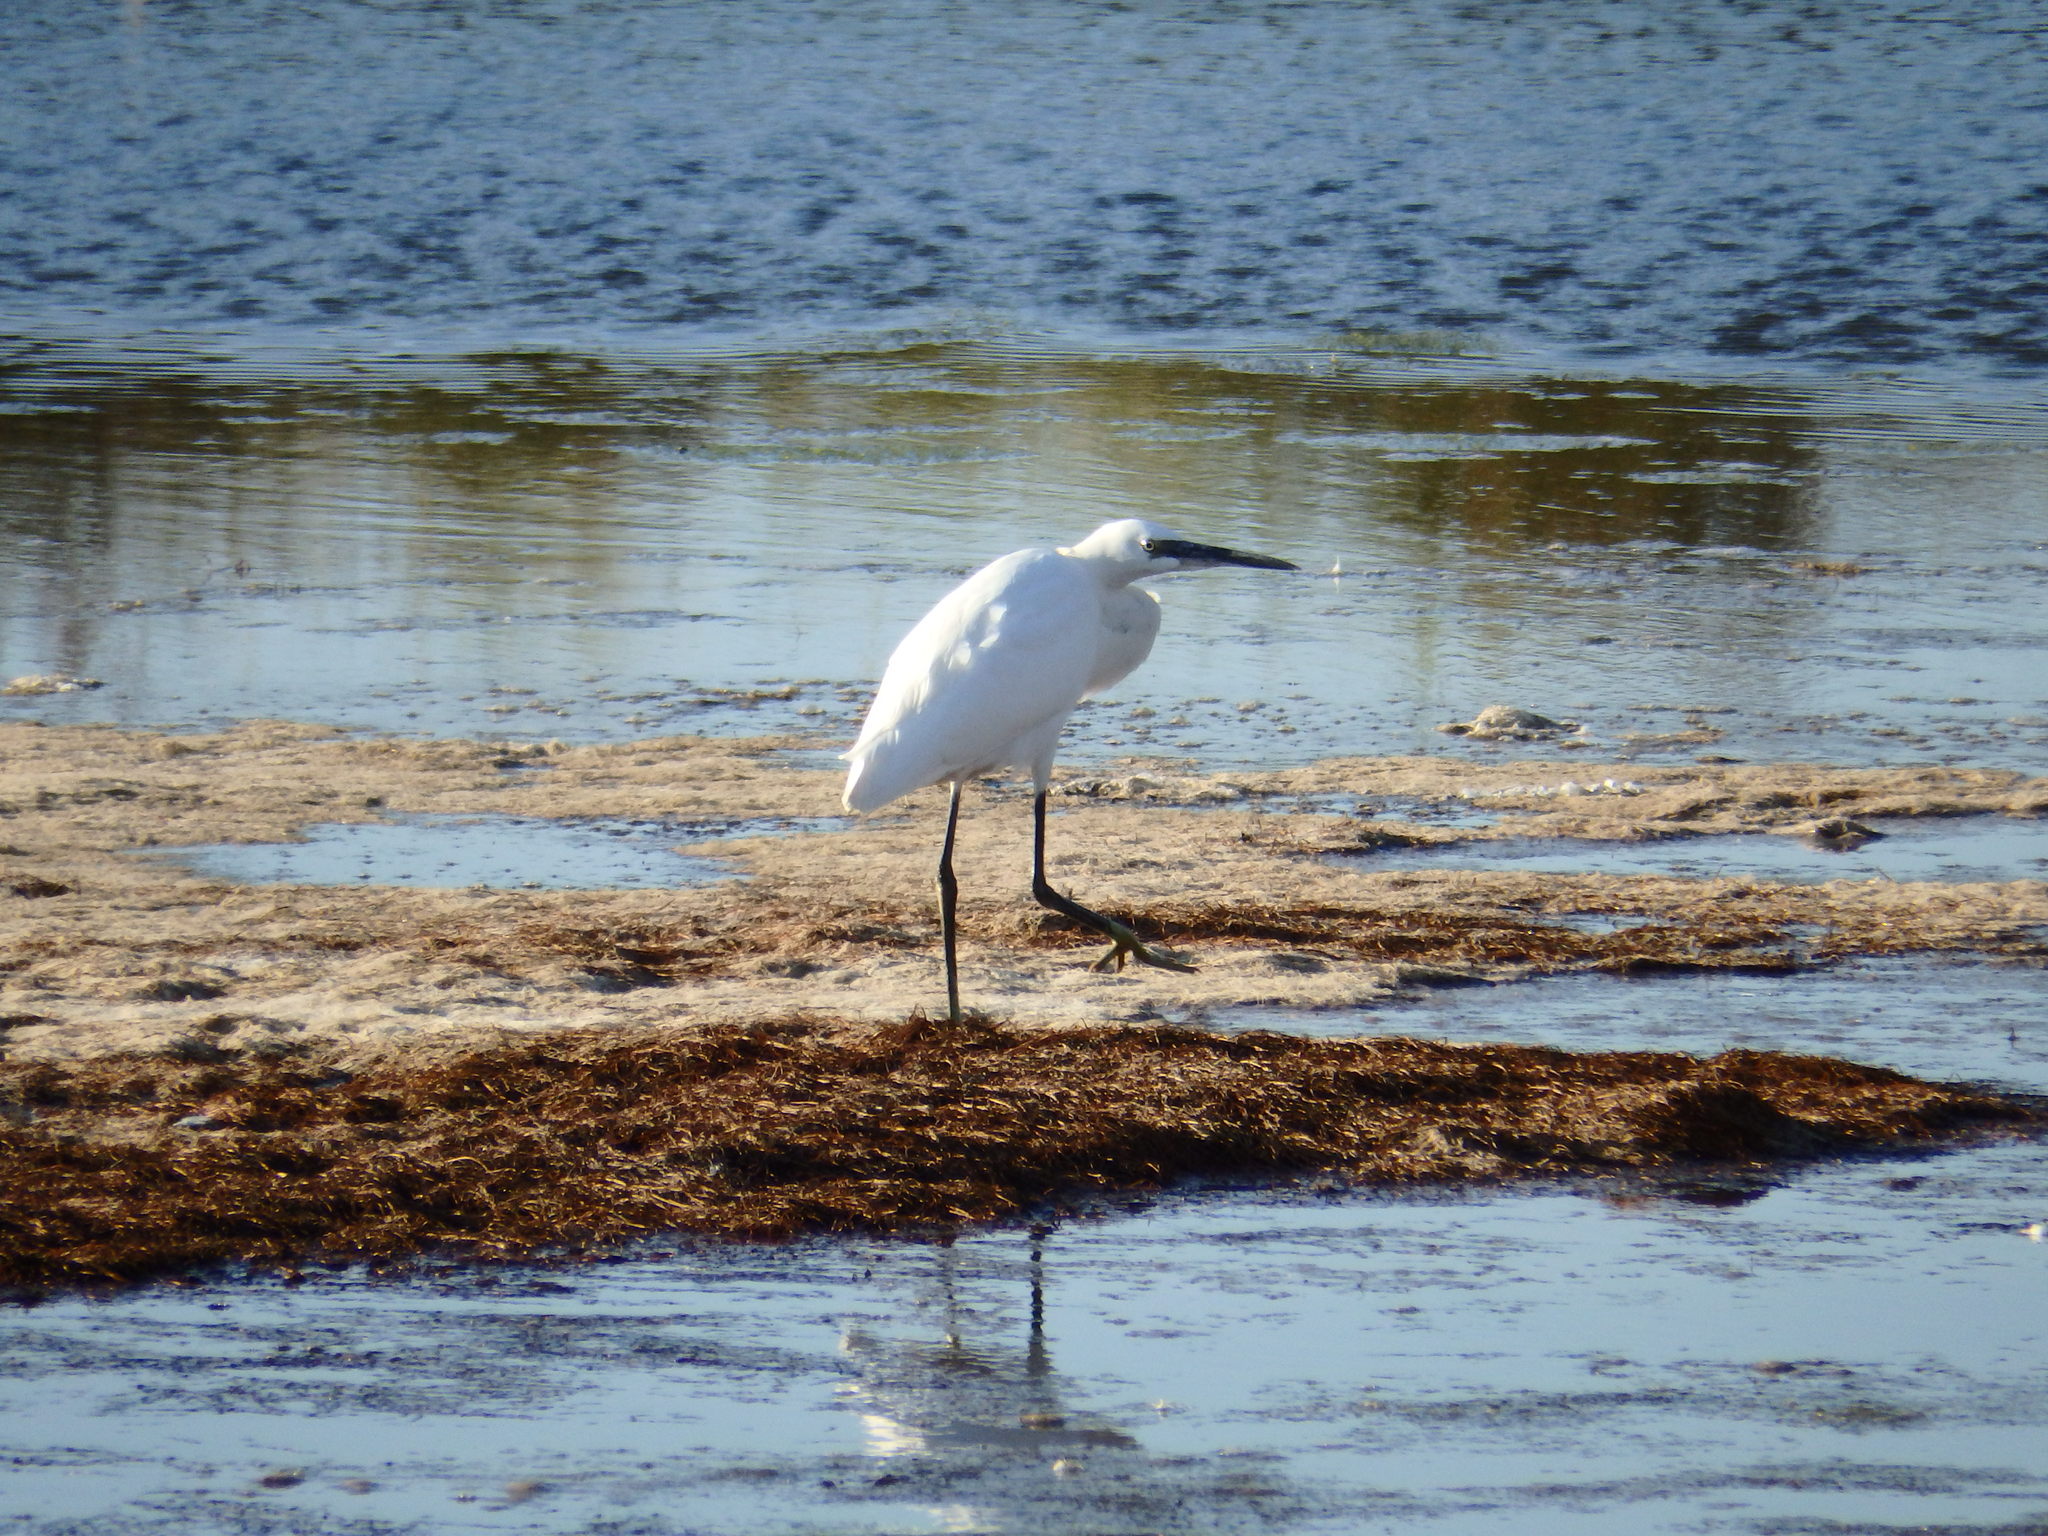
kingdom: Animalia
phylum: Chordata
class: Aves
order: Pelecaniformes
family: Ardeidae
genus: Egretta
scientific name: Egretta garzetta
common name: Little egret
